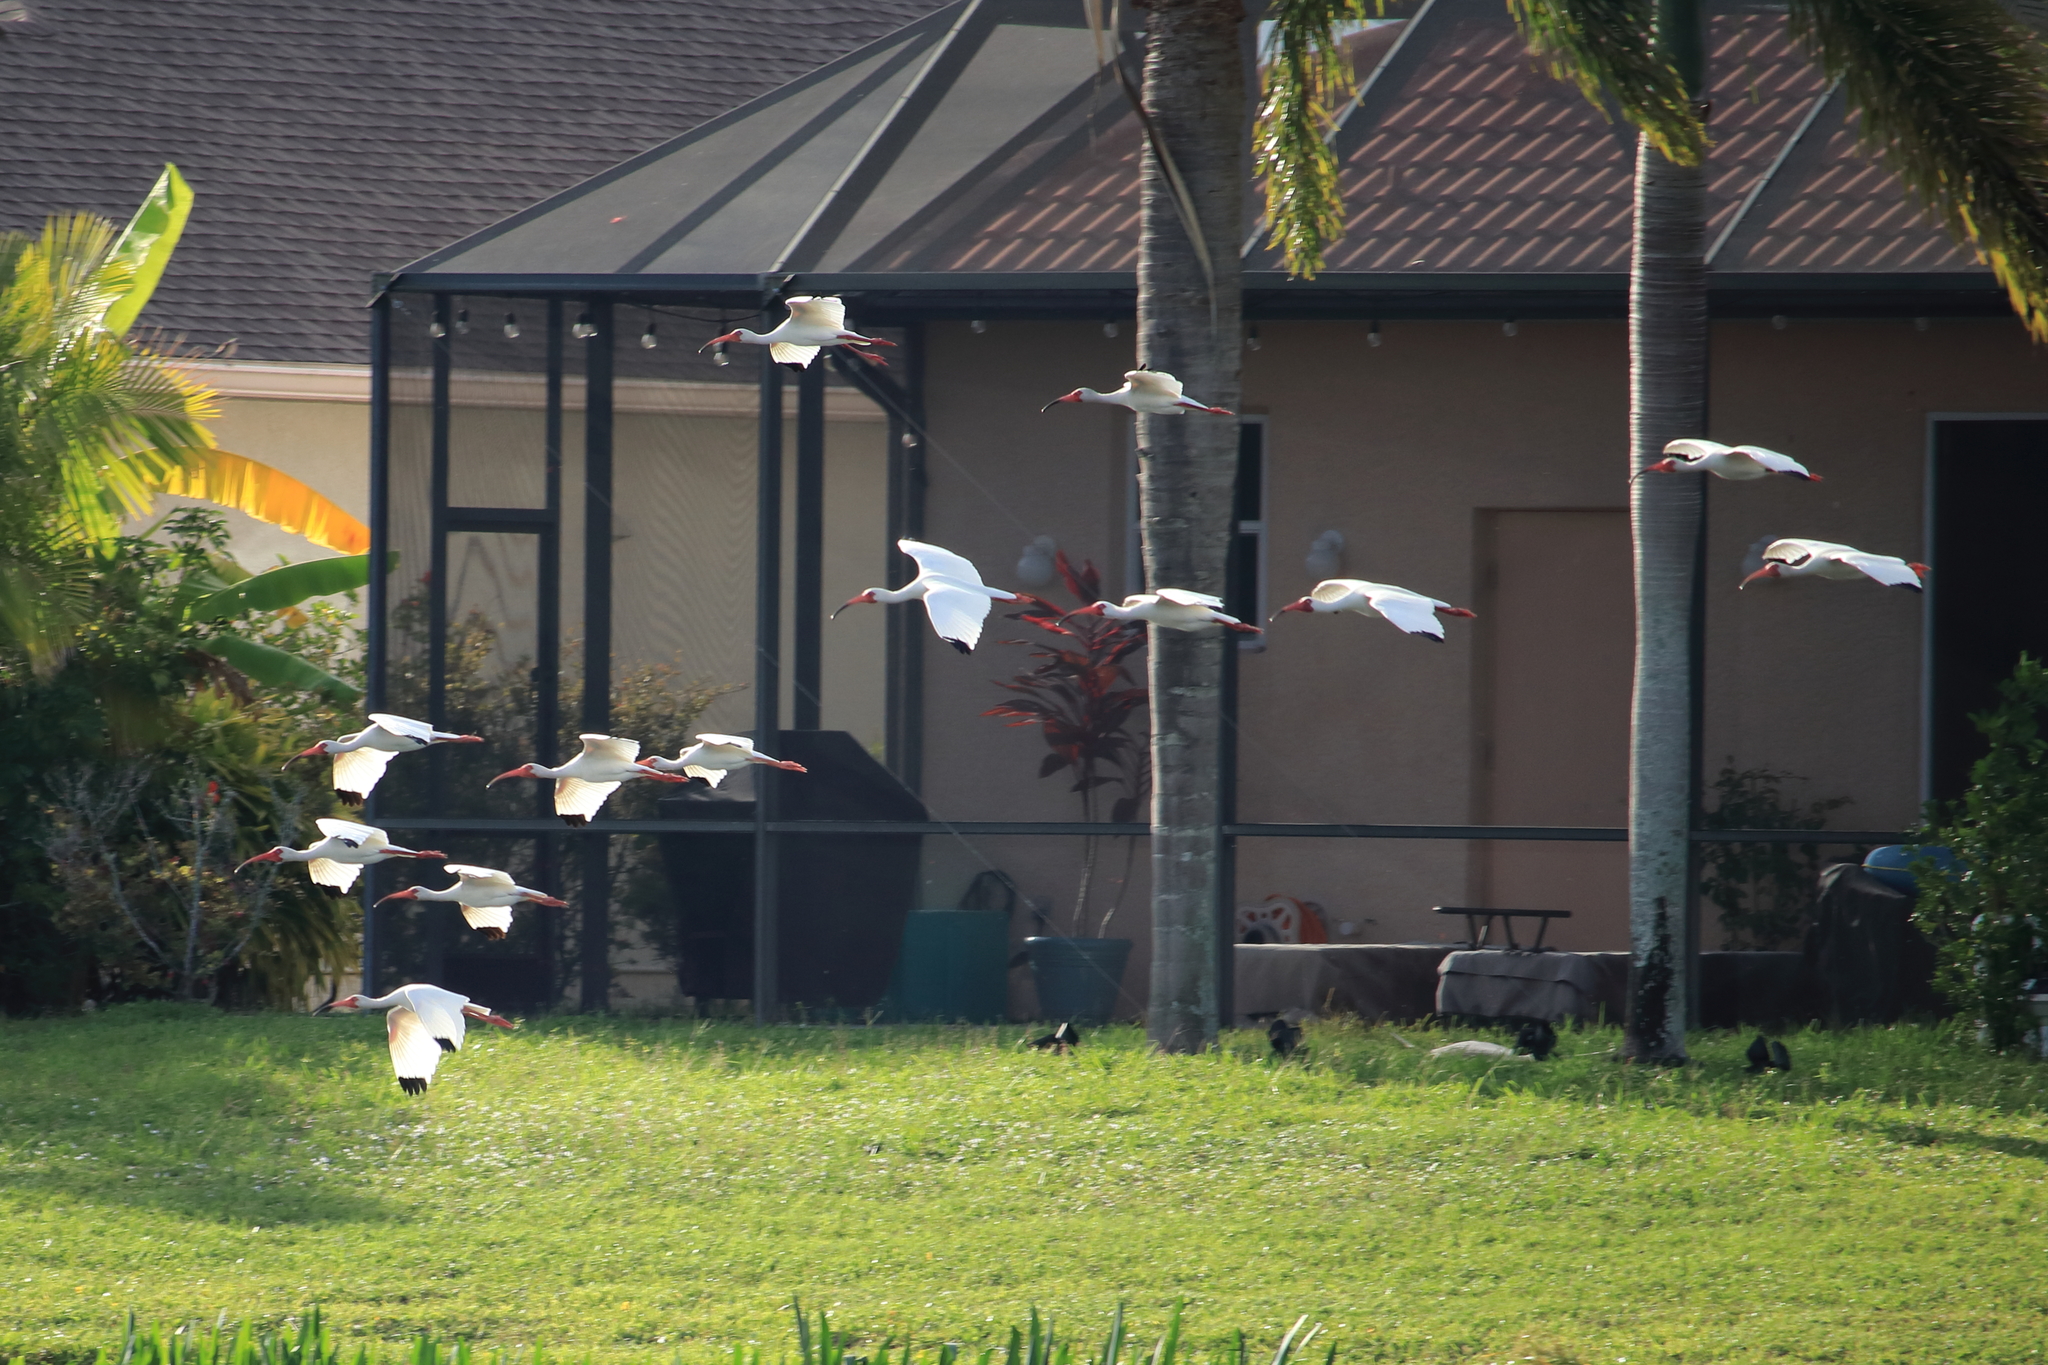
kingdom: Animalia
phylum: Chordata
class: Aves
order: Pelecaniformes
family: Threskiornithidae
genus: Eudocimus
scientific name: Eudocimus albus
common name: White ibis
